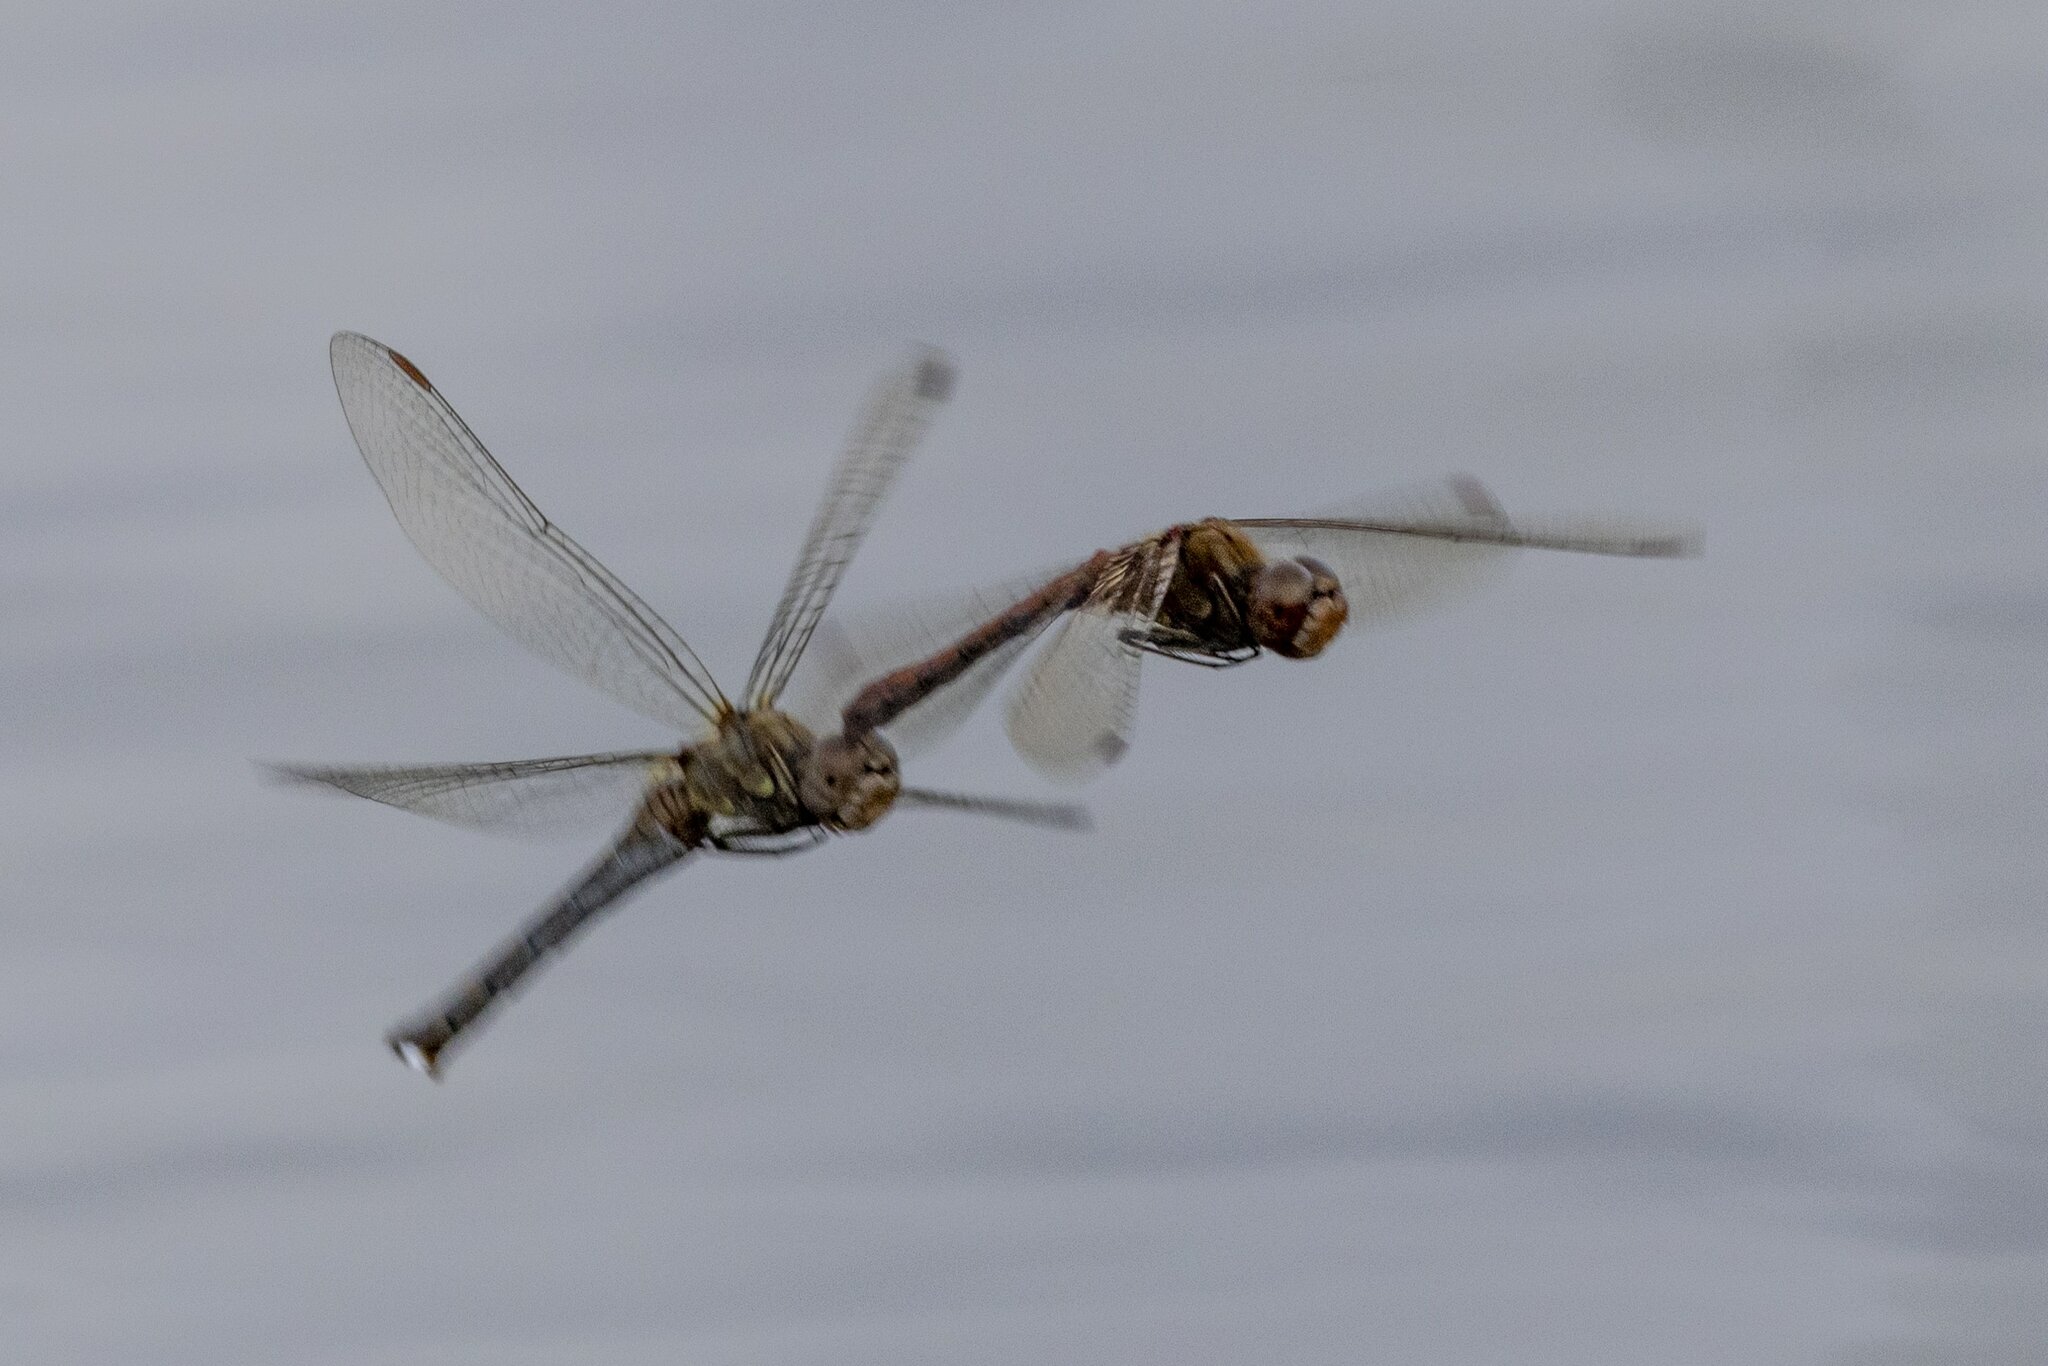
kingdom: Animalia
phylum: Arthropoda
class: Insecta
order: Odonata
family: Libellulidae
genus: Sympetrum
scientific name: Sympetrum striolatum
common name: Common darter
